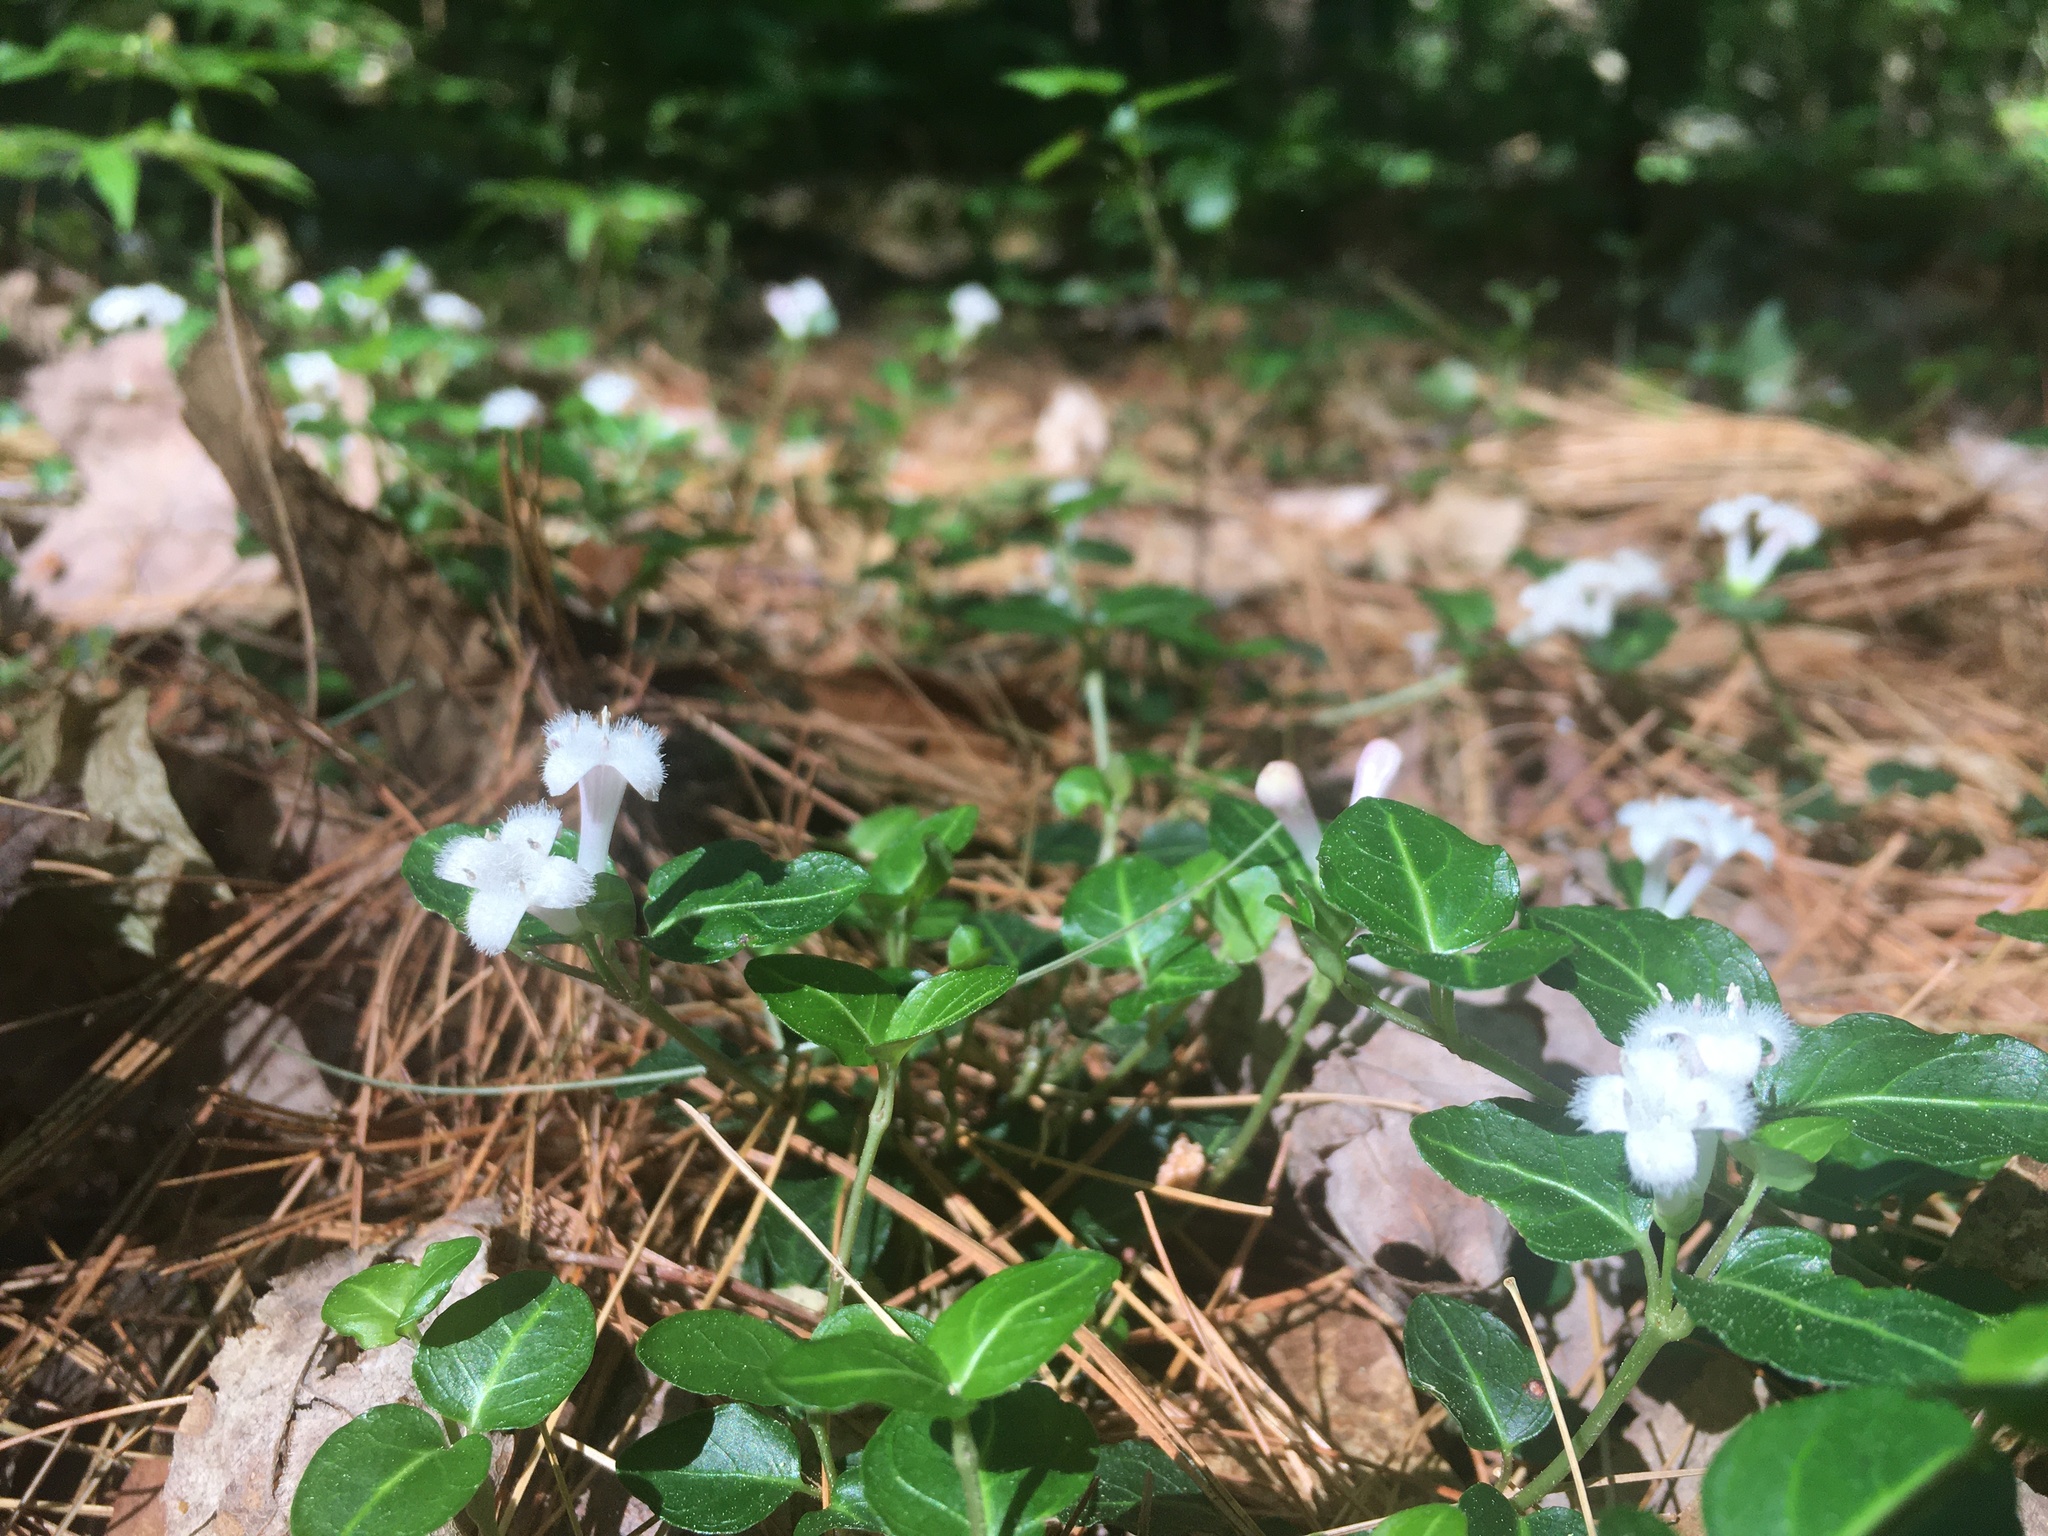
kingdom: Plantae
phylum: Tracheophyta
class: Magnoliopsida
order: Gentianales
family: Rubiaceae
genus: Mitchella
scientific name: Mitchella repens
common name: Partridge-berry
